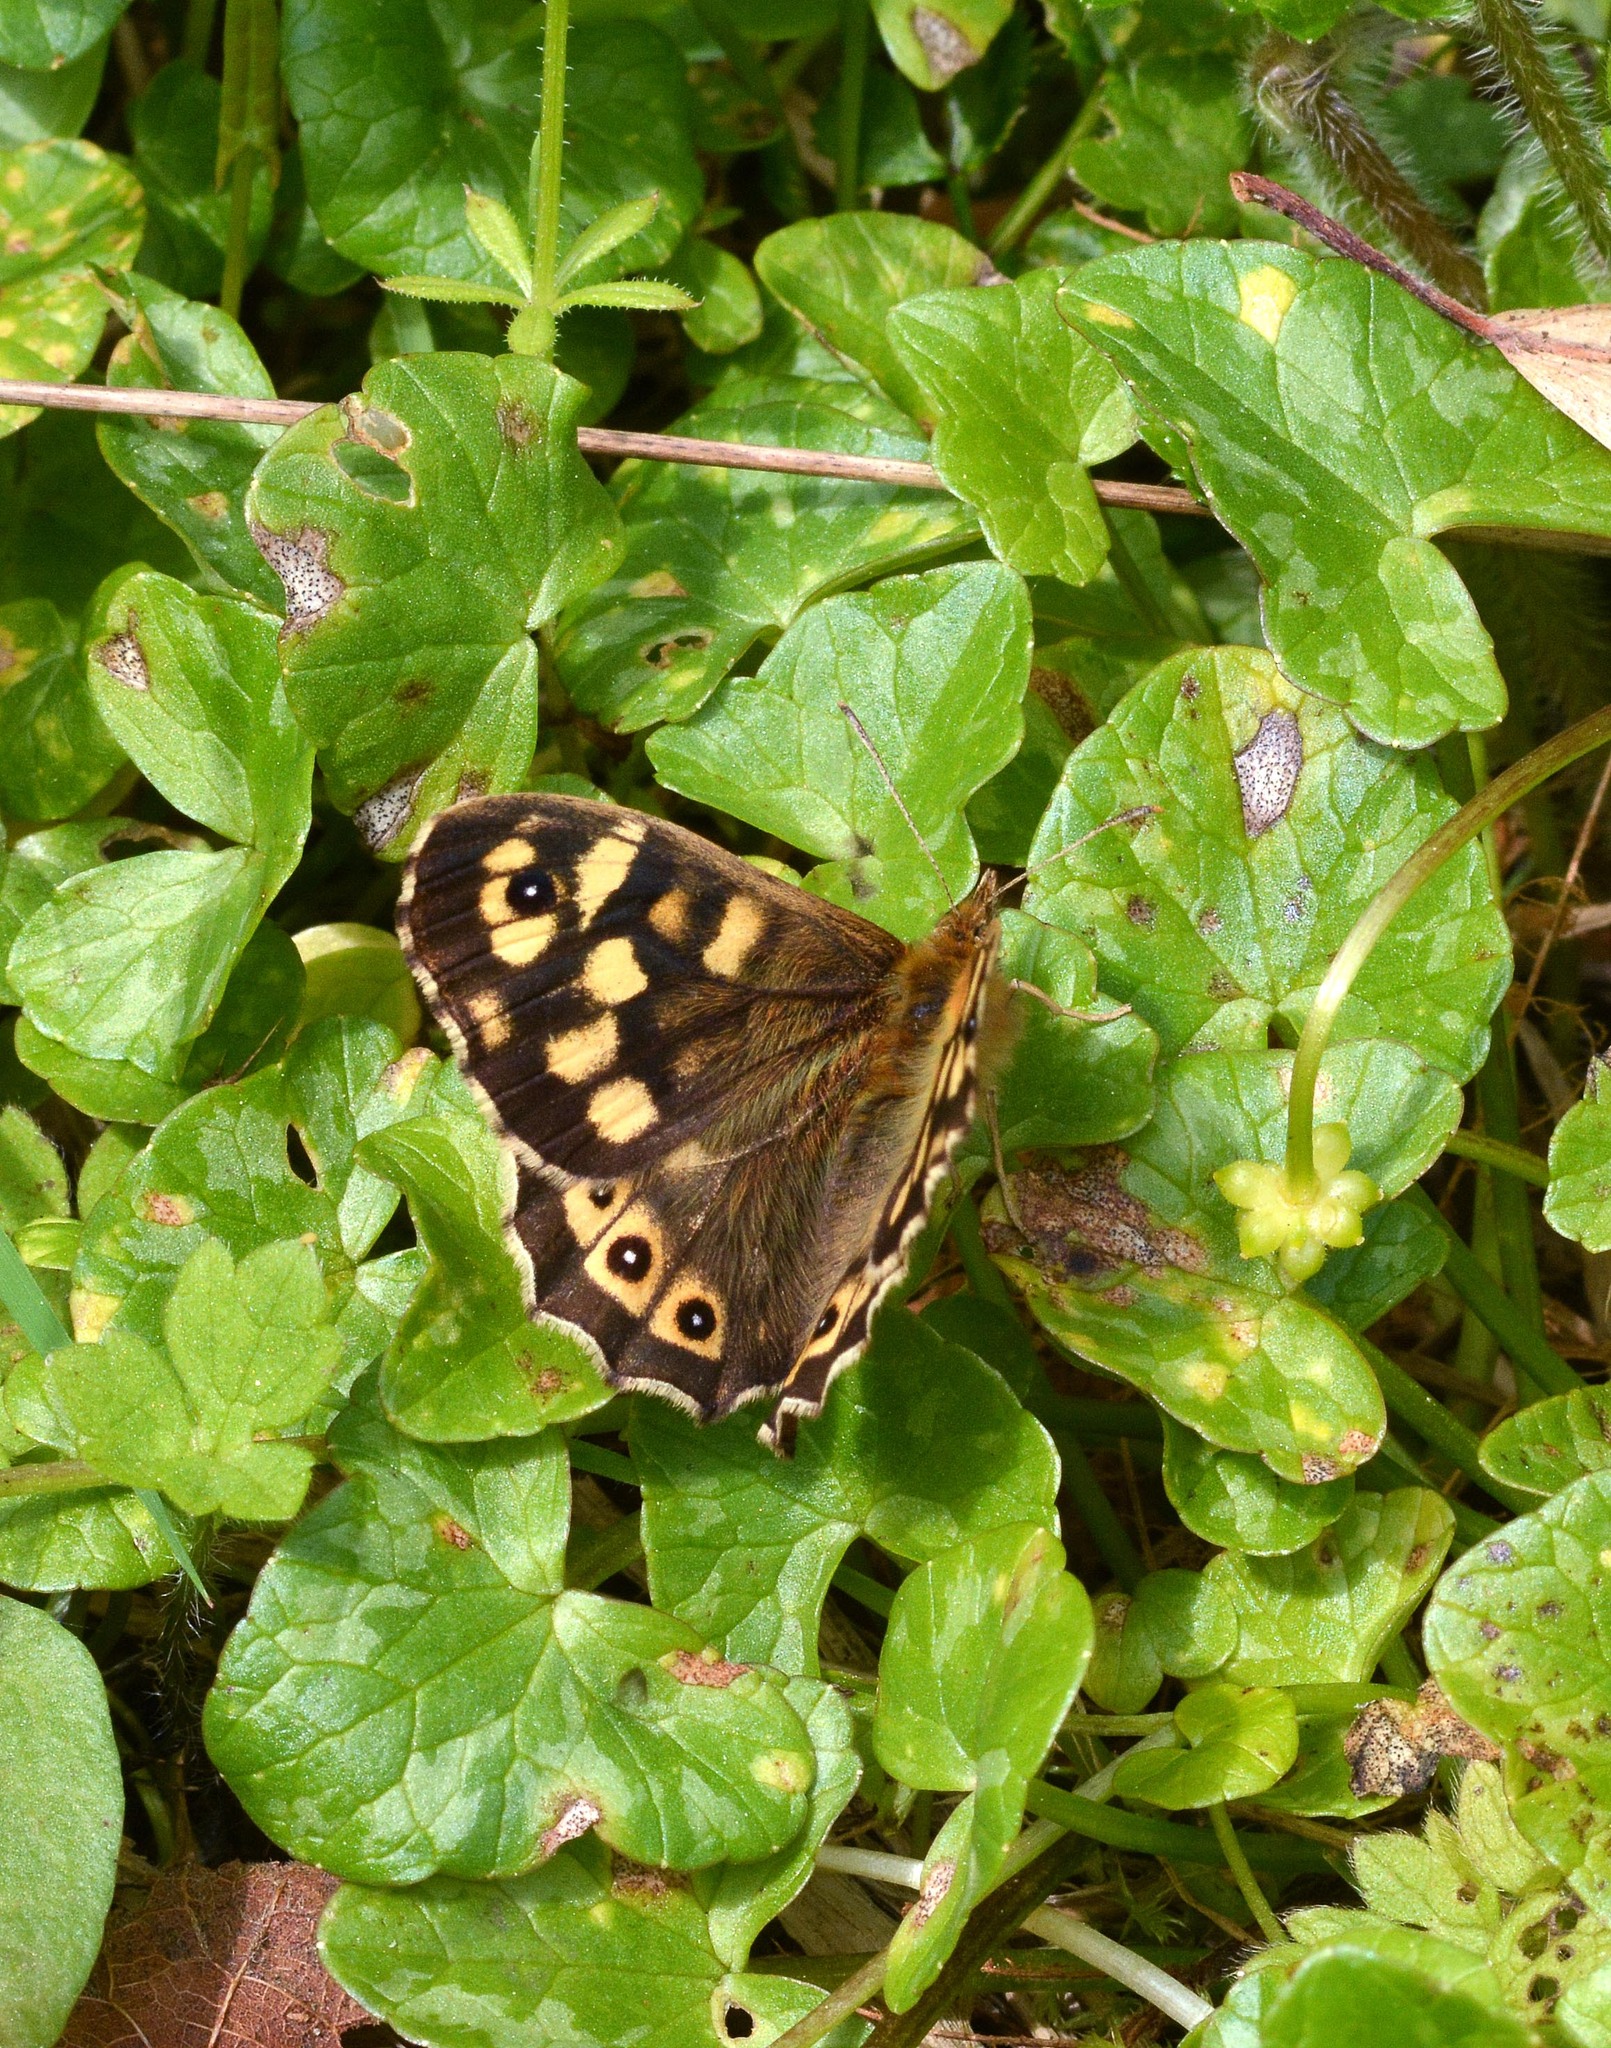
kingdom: Animalia
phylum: Arthropoda
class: Insecta
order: Lepidoptera
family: Nymphalidae
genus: Pararge
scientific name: Pararge aegeria
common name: Speckled wood
